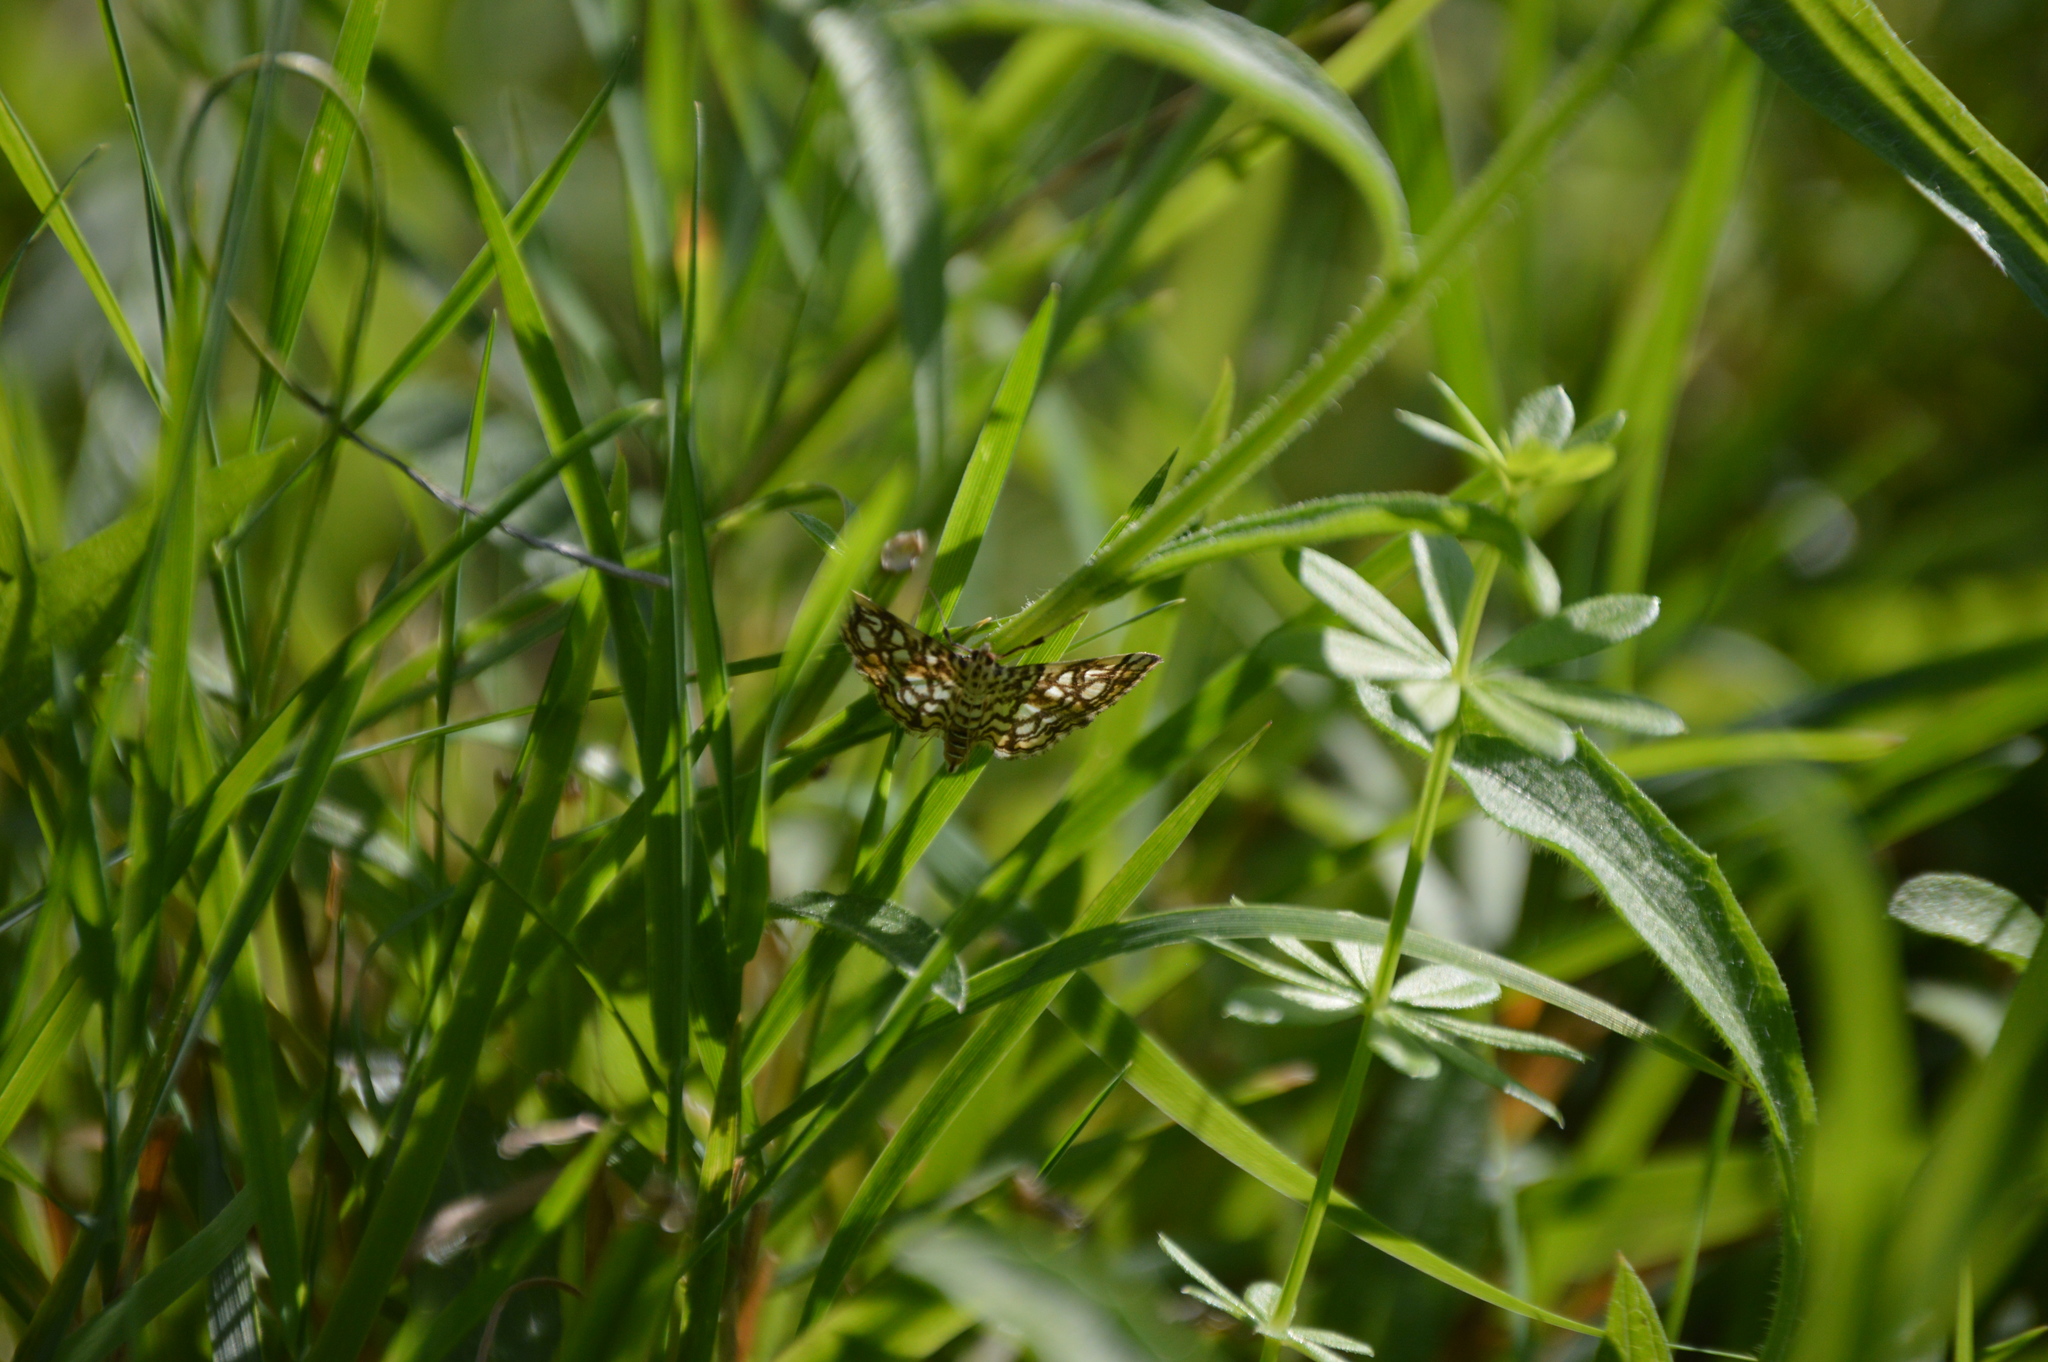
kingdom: Animalia
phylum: Arthropoda
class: Insecta
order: Lepidoptera
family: Crambidae
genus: Lygropia
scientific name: Lygropia rivulalis
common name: Bog lygropia moth
